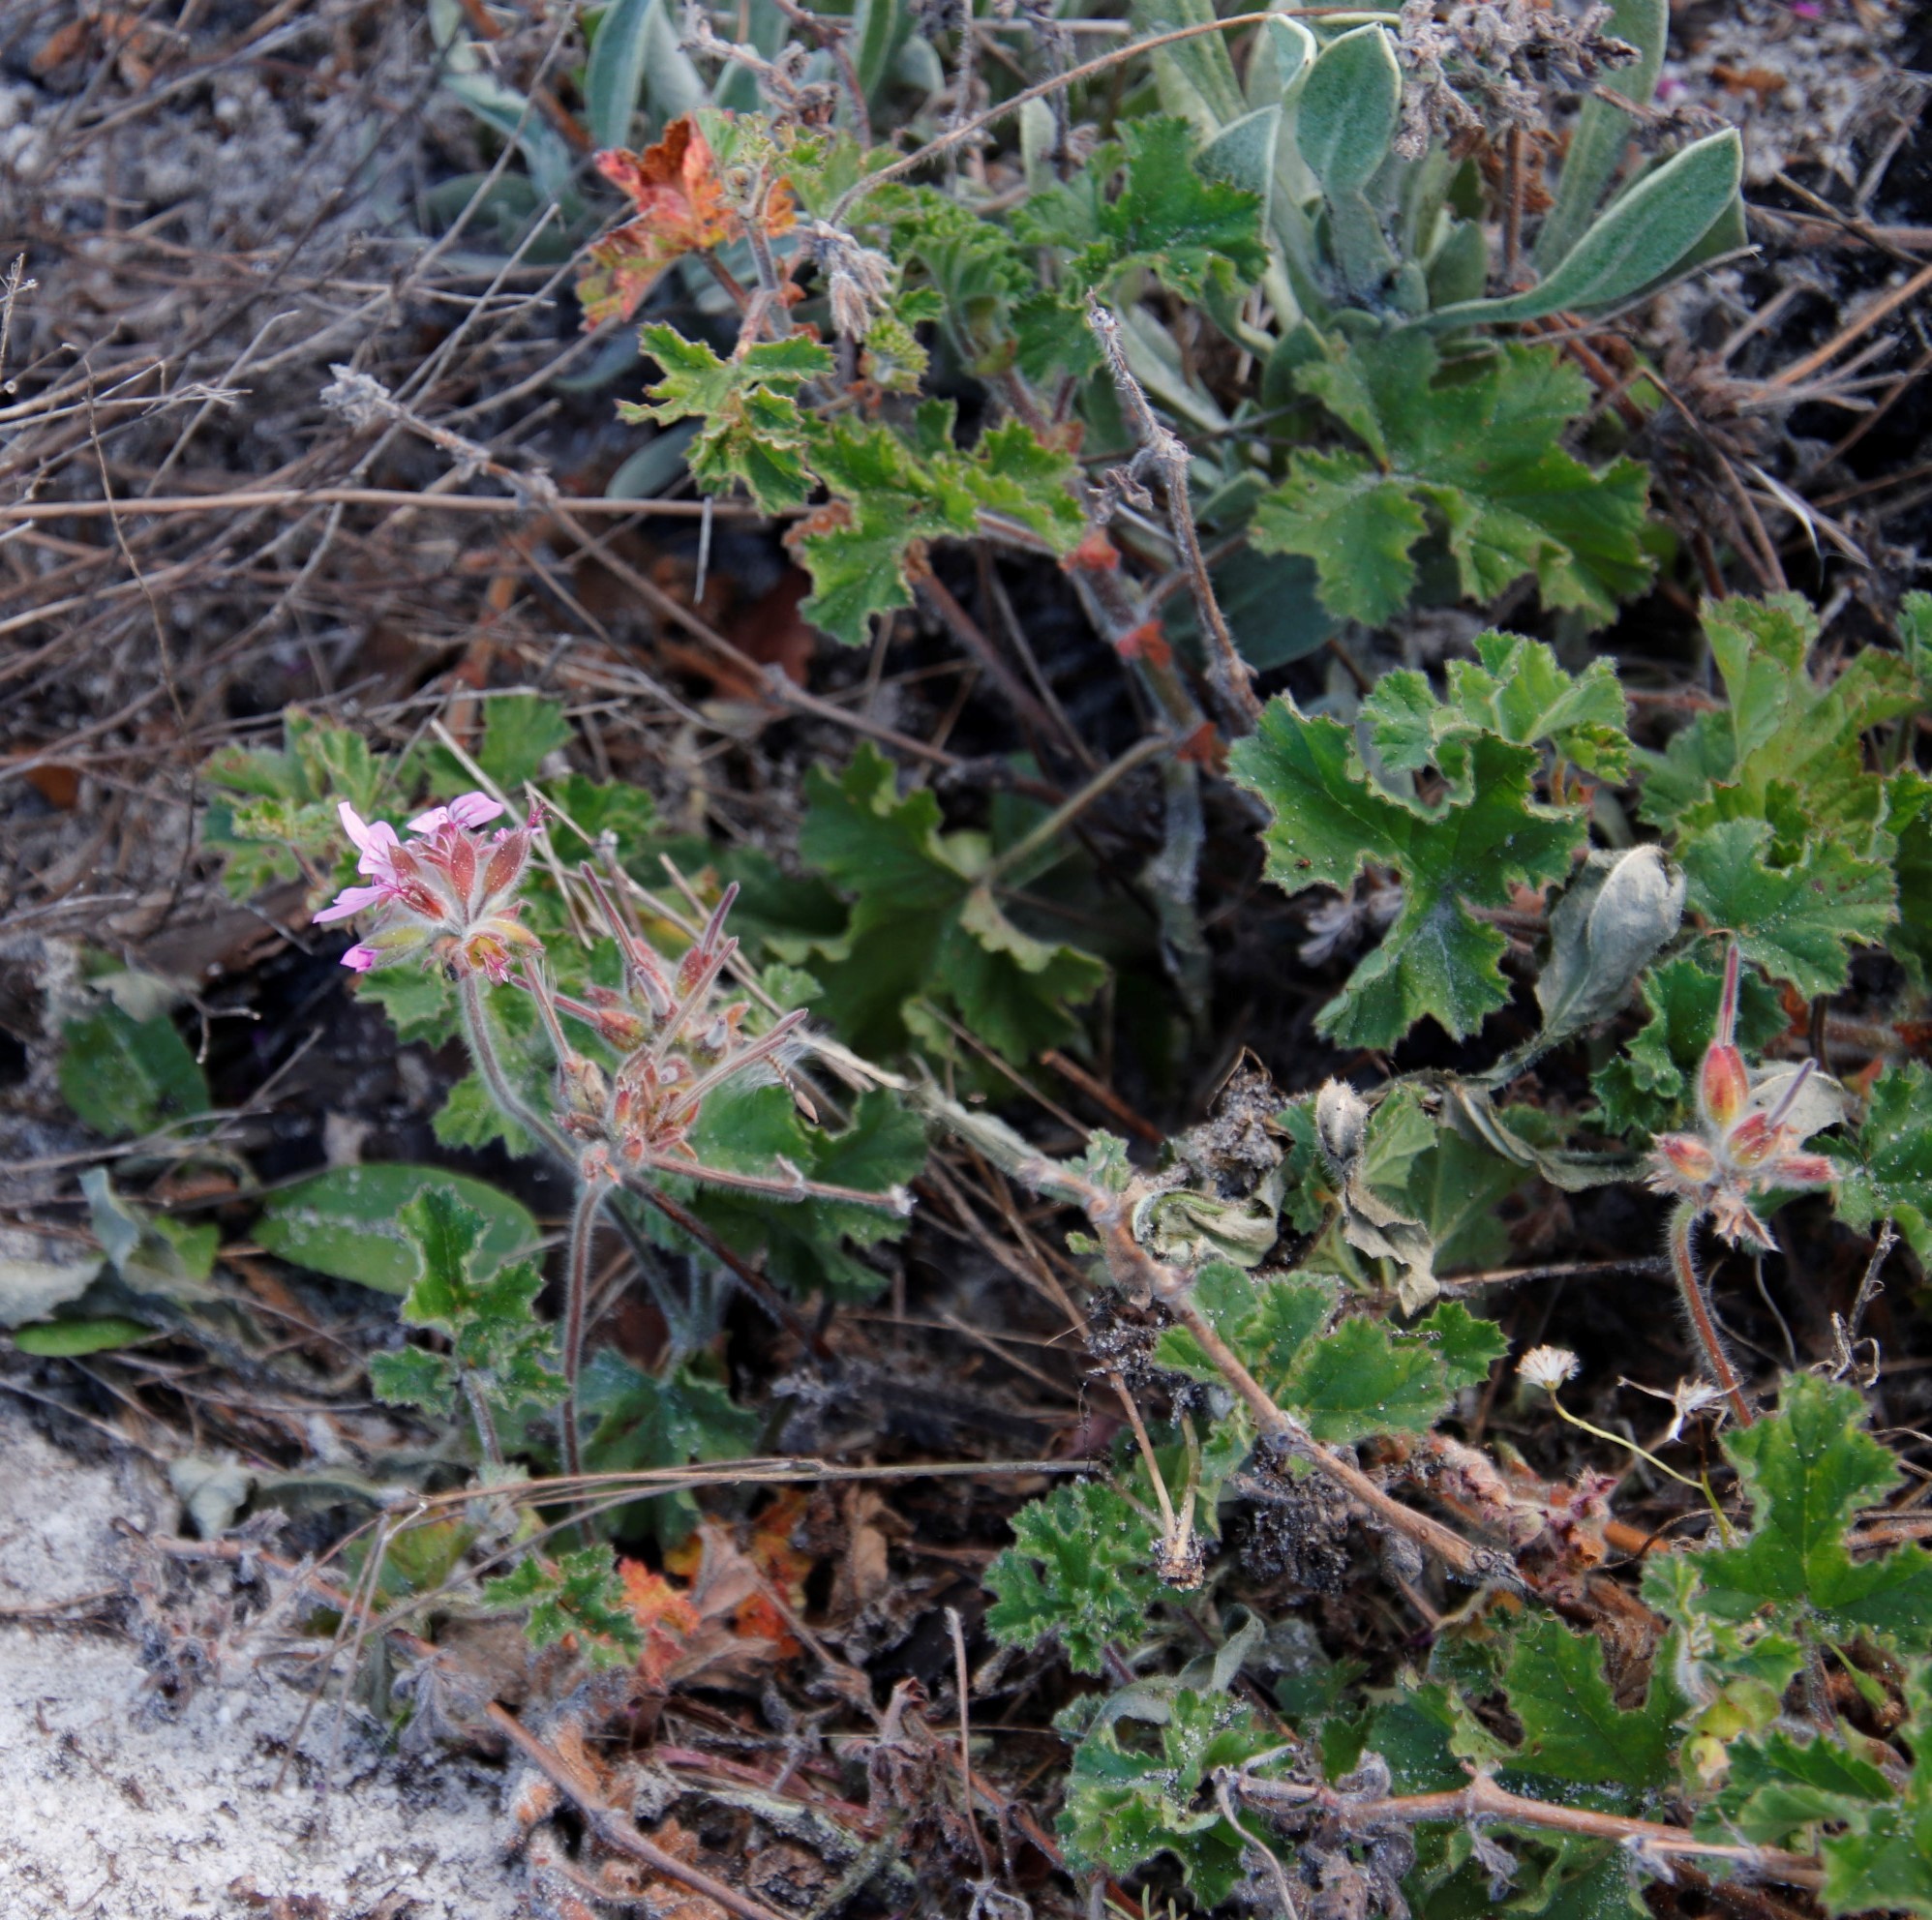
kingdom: Plantae
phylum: Tracheophyta
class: Magnoliopsida
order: Geraniales
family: Geraniaceae
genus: Pelargonium
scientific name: Pelargonium capitatum
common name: Rose scented geranium
